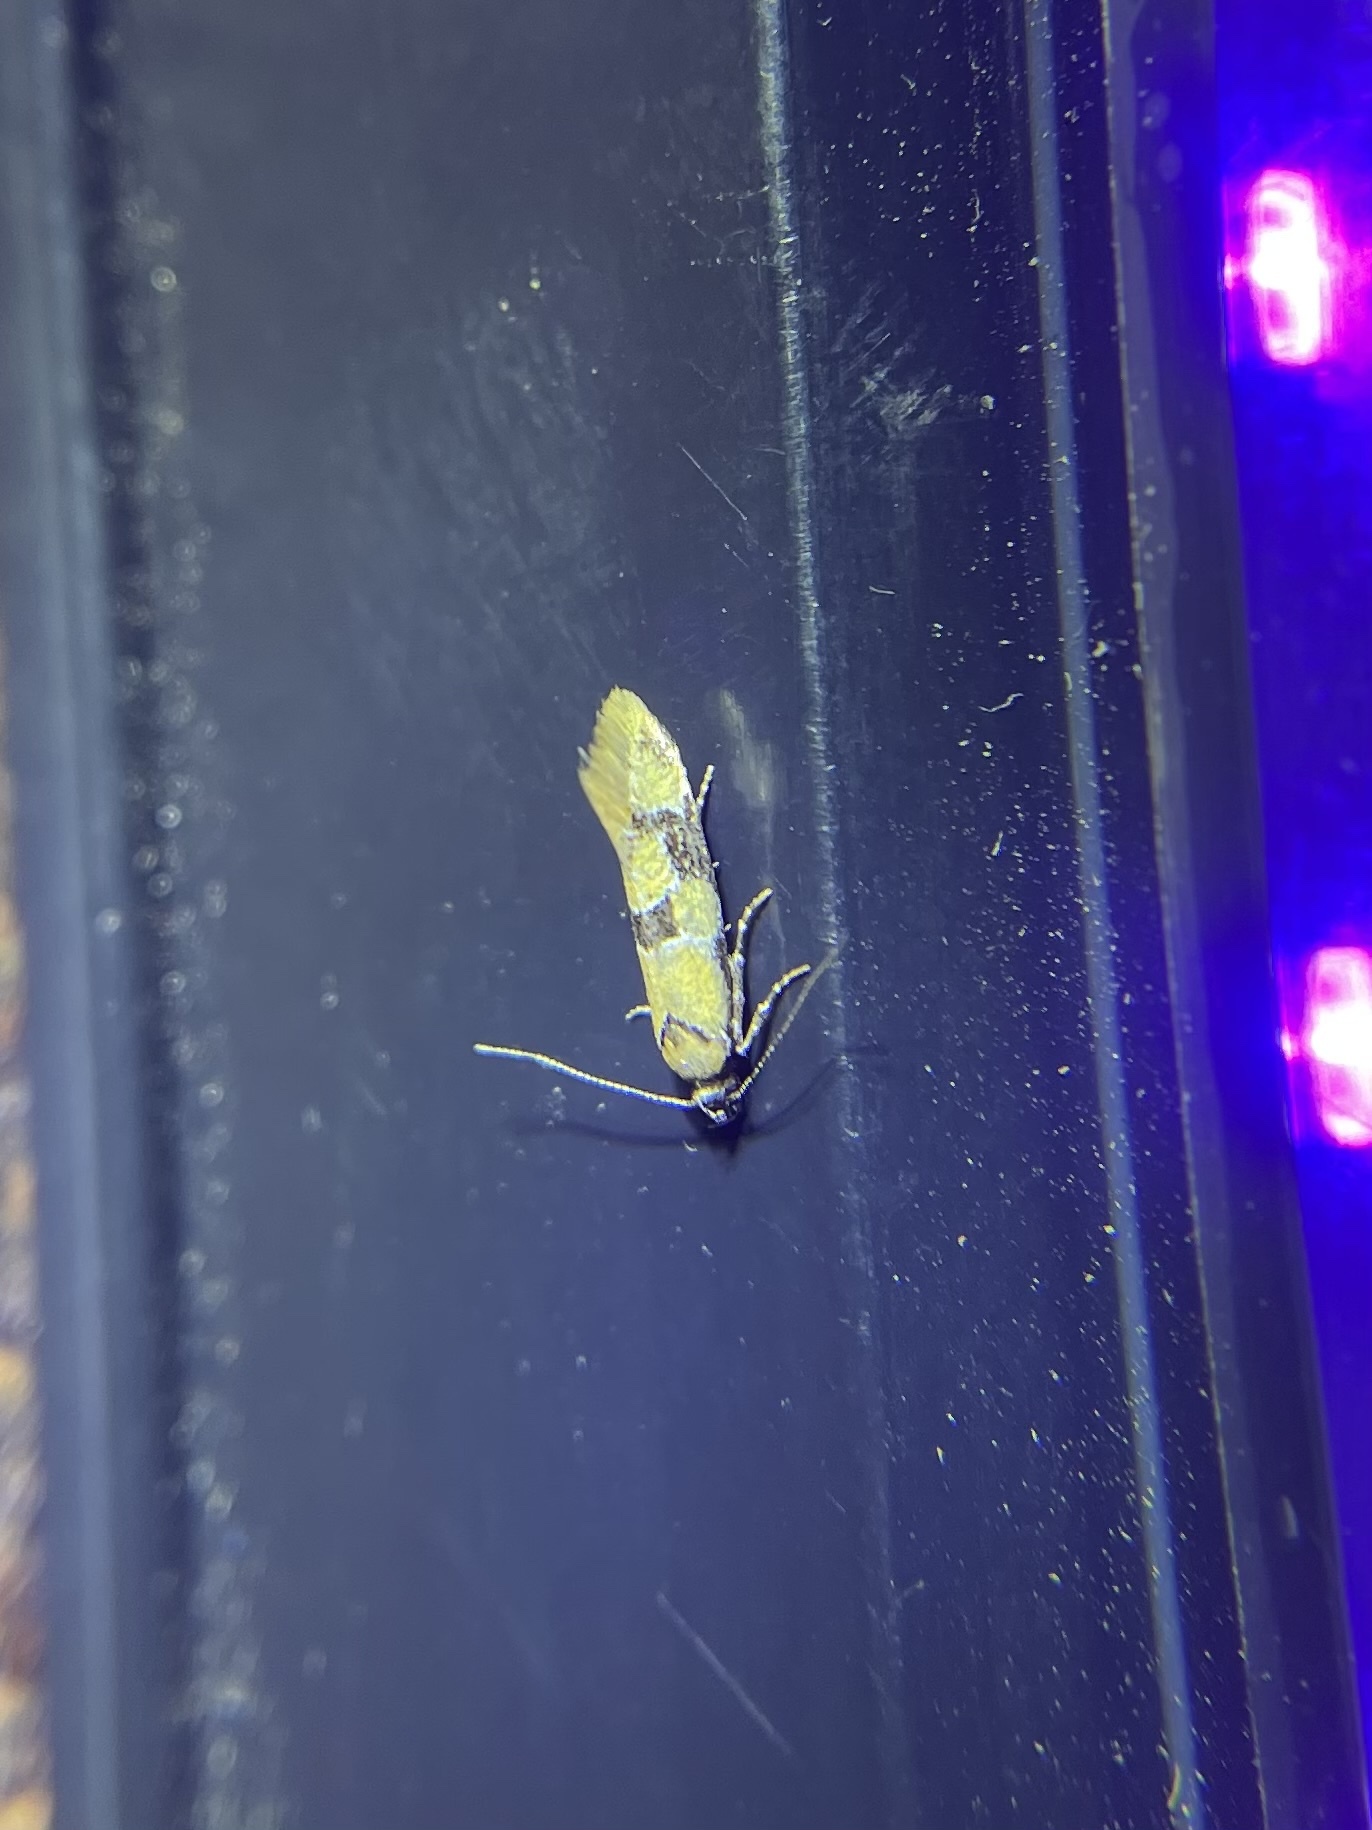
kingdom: Animalia
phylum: Arthropoda
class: Insecta
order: Lepidoptera
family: Oecophoridae
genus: Decantha
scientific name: Decantha stonda
